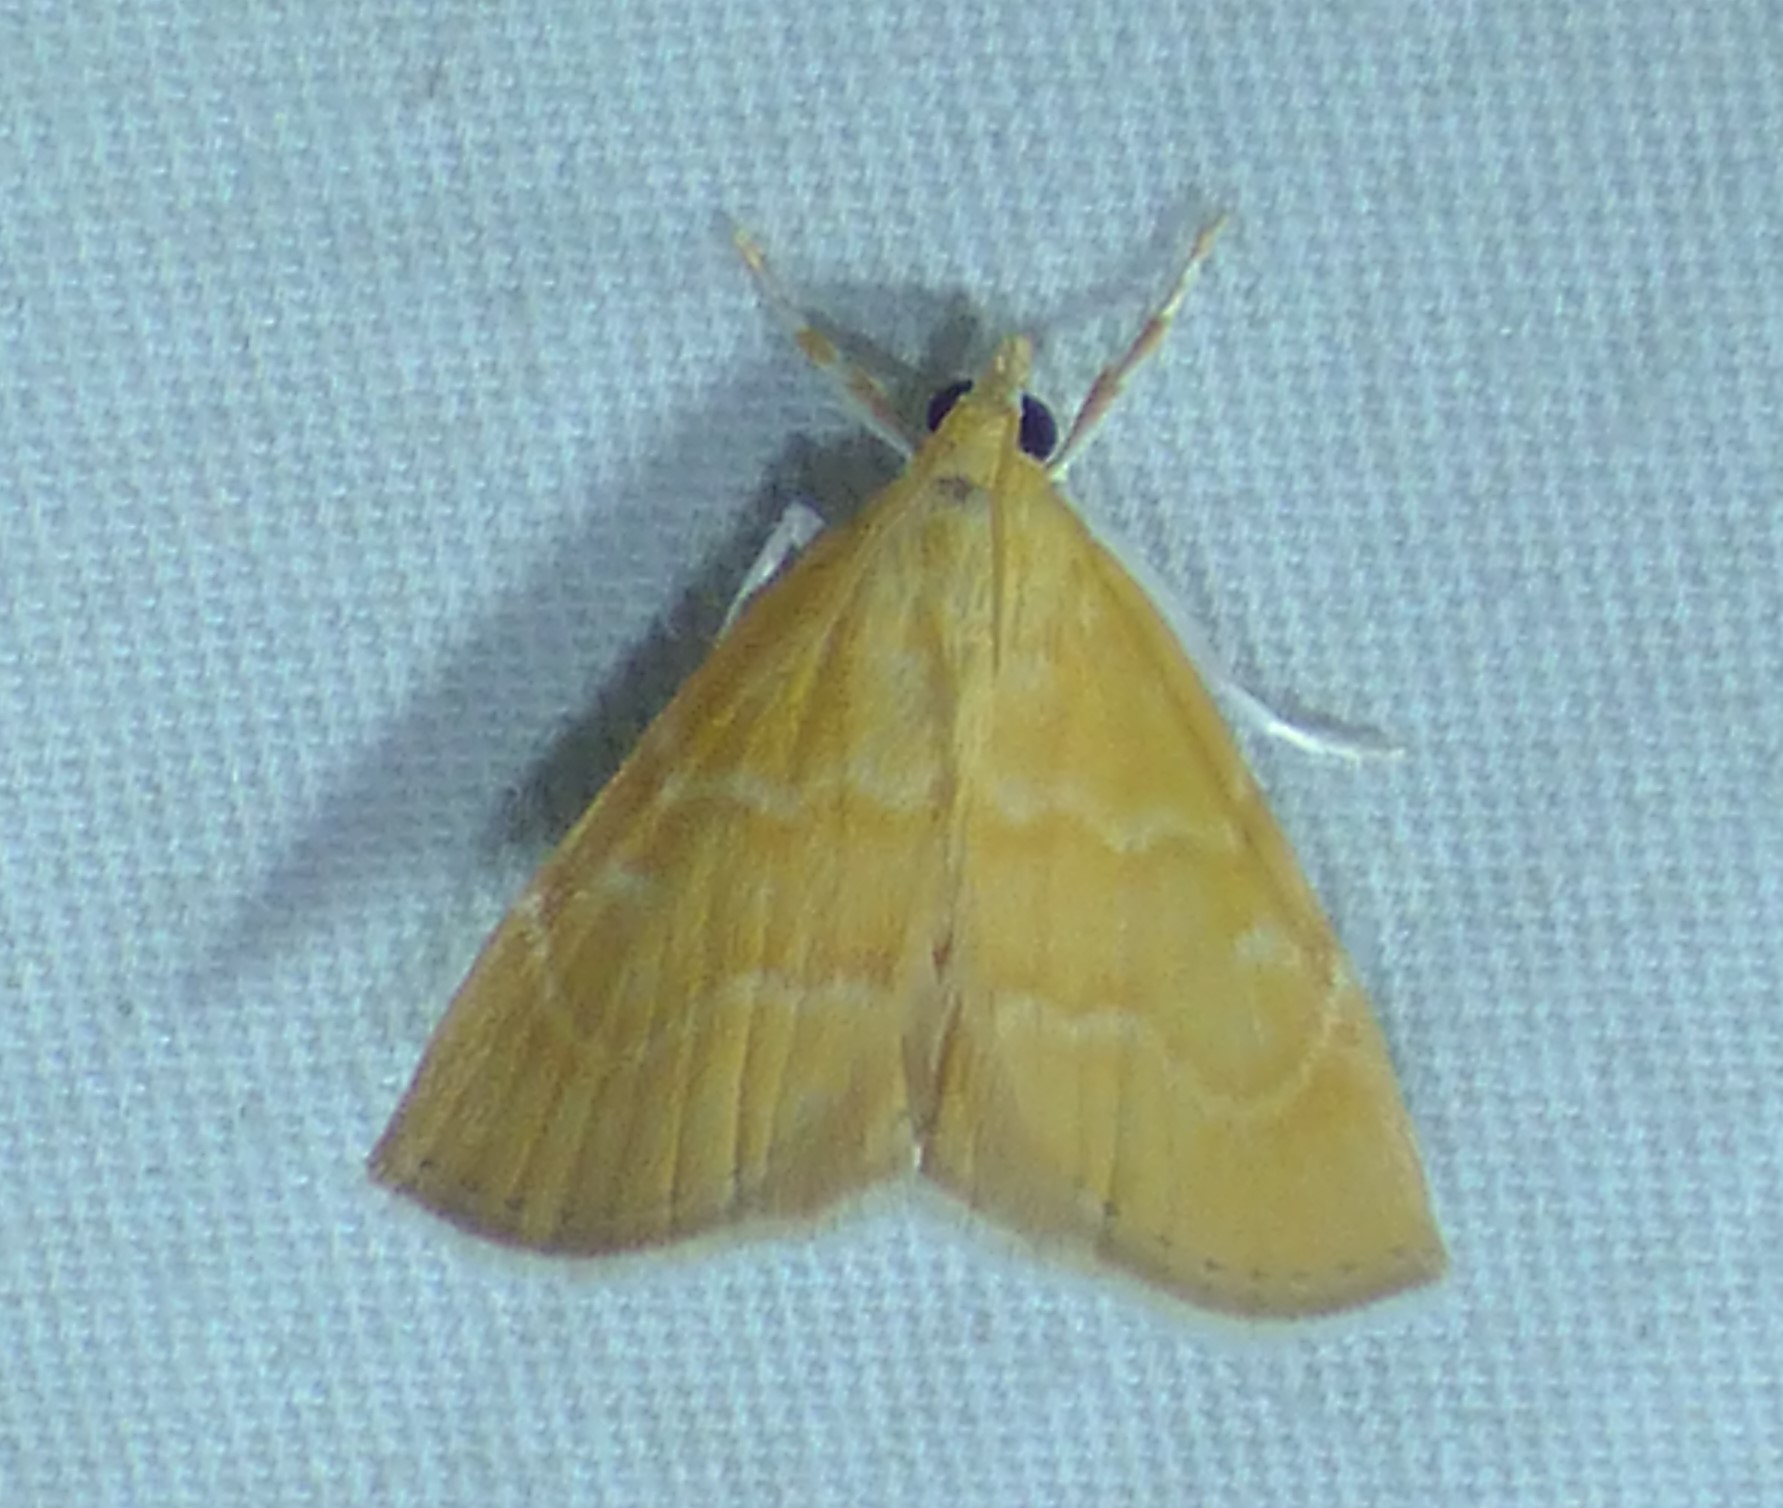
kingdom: Animalia
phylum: Arthropoda
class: Insecta
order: Lepidoptera
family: Crambidae
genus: Glaphyria
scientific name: Glaphyria invisalis
